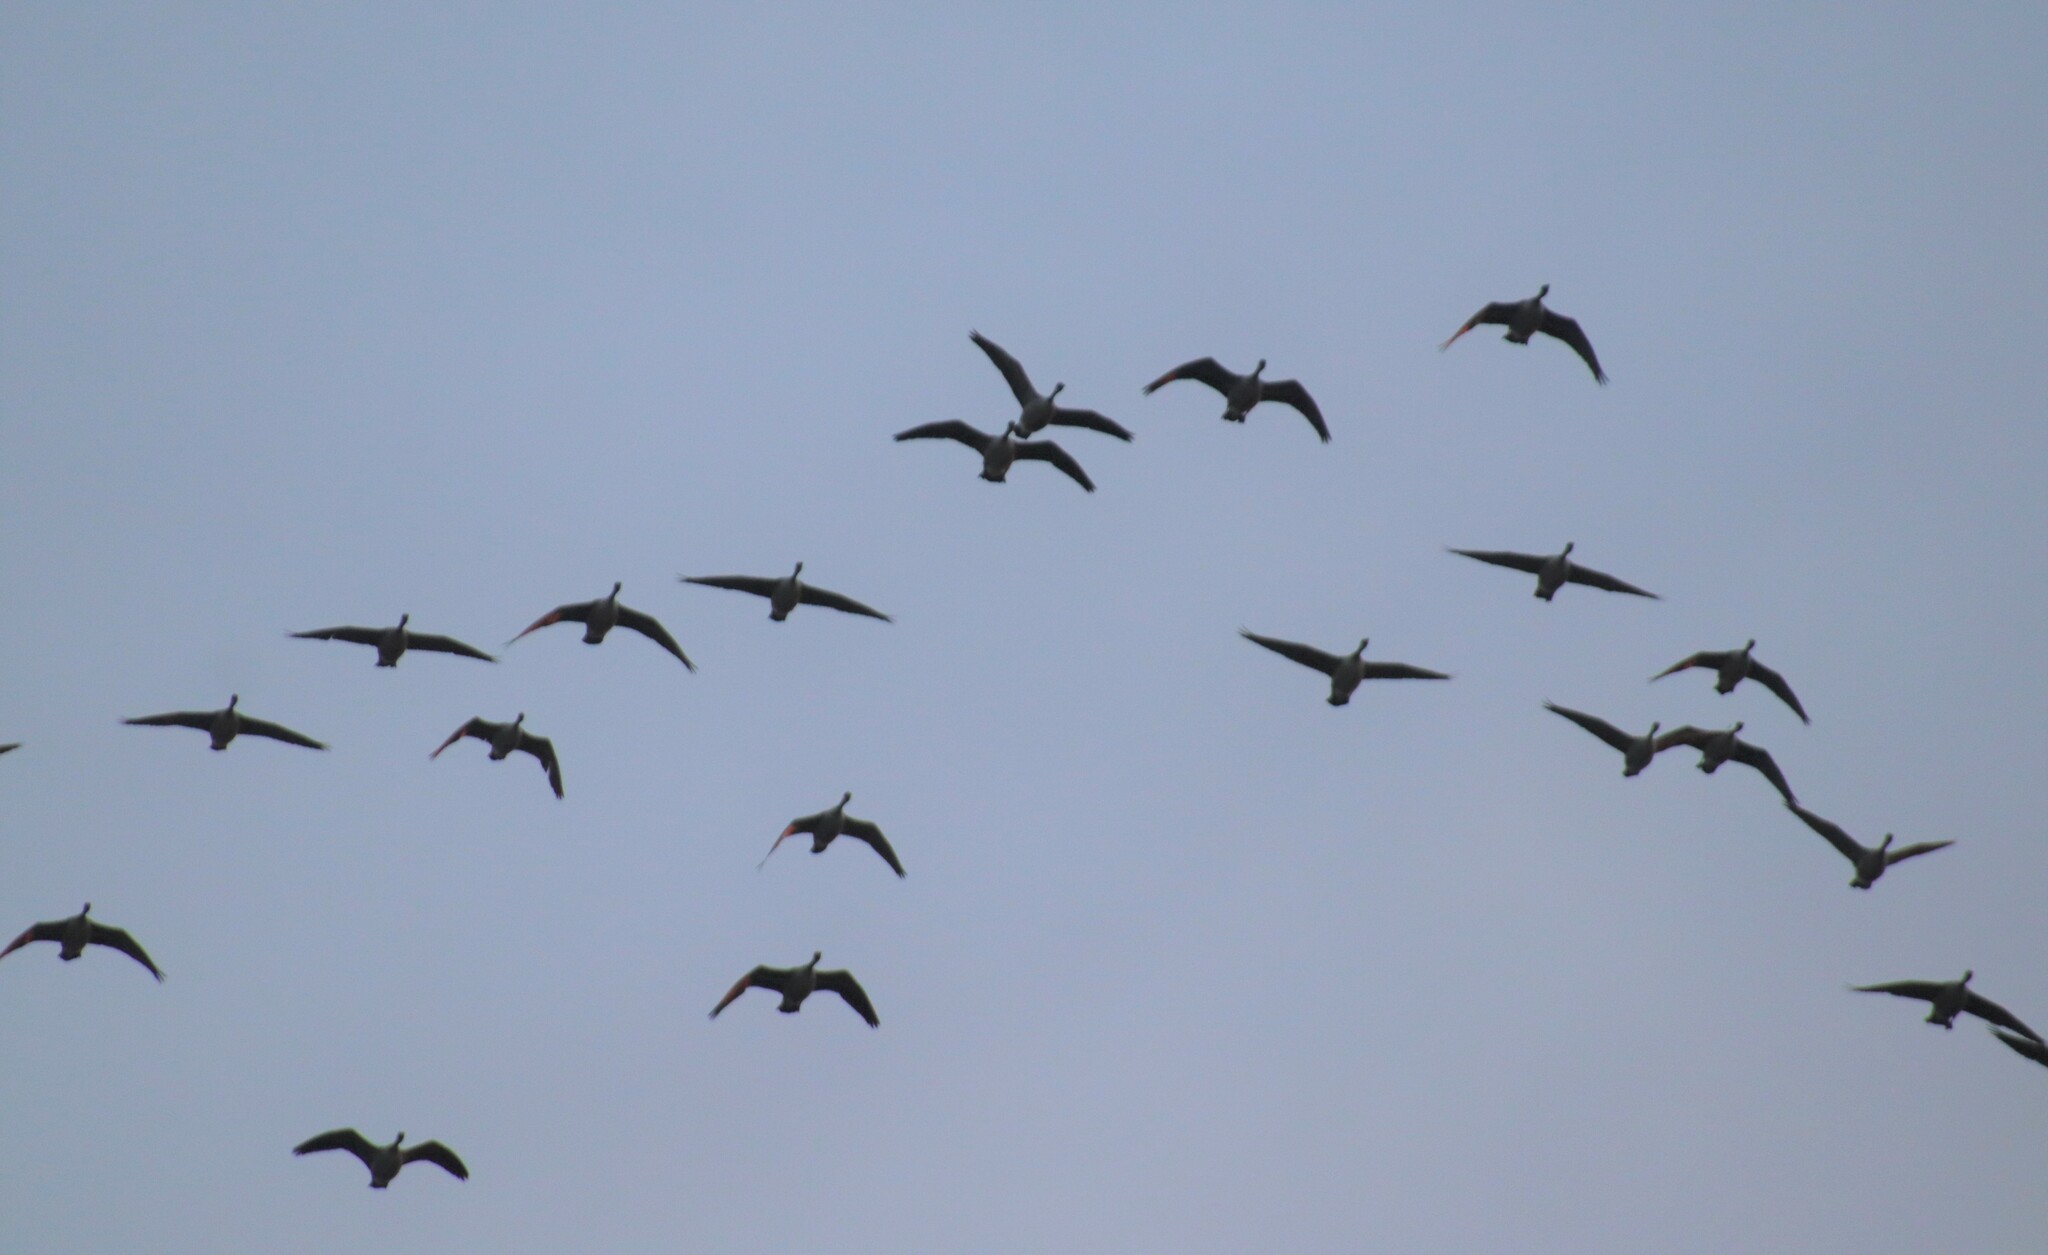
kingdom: Animalia
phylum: Chordata
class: Aves
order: Anseriformes
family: Anatidae
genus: Branta
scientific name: Branta canadensis
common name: Canada goose
